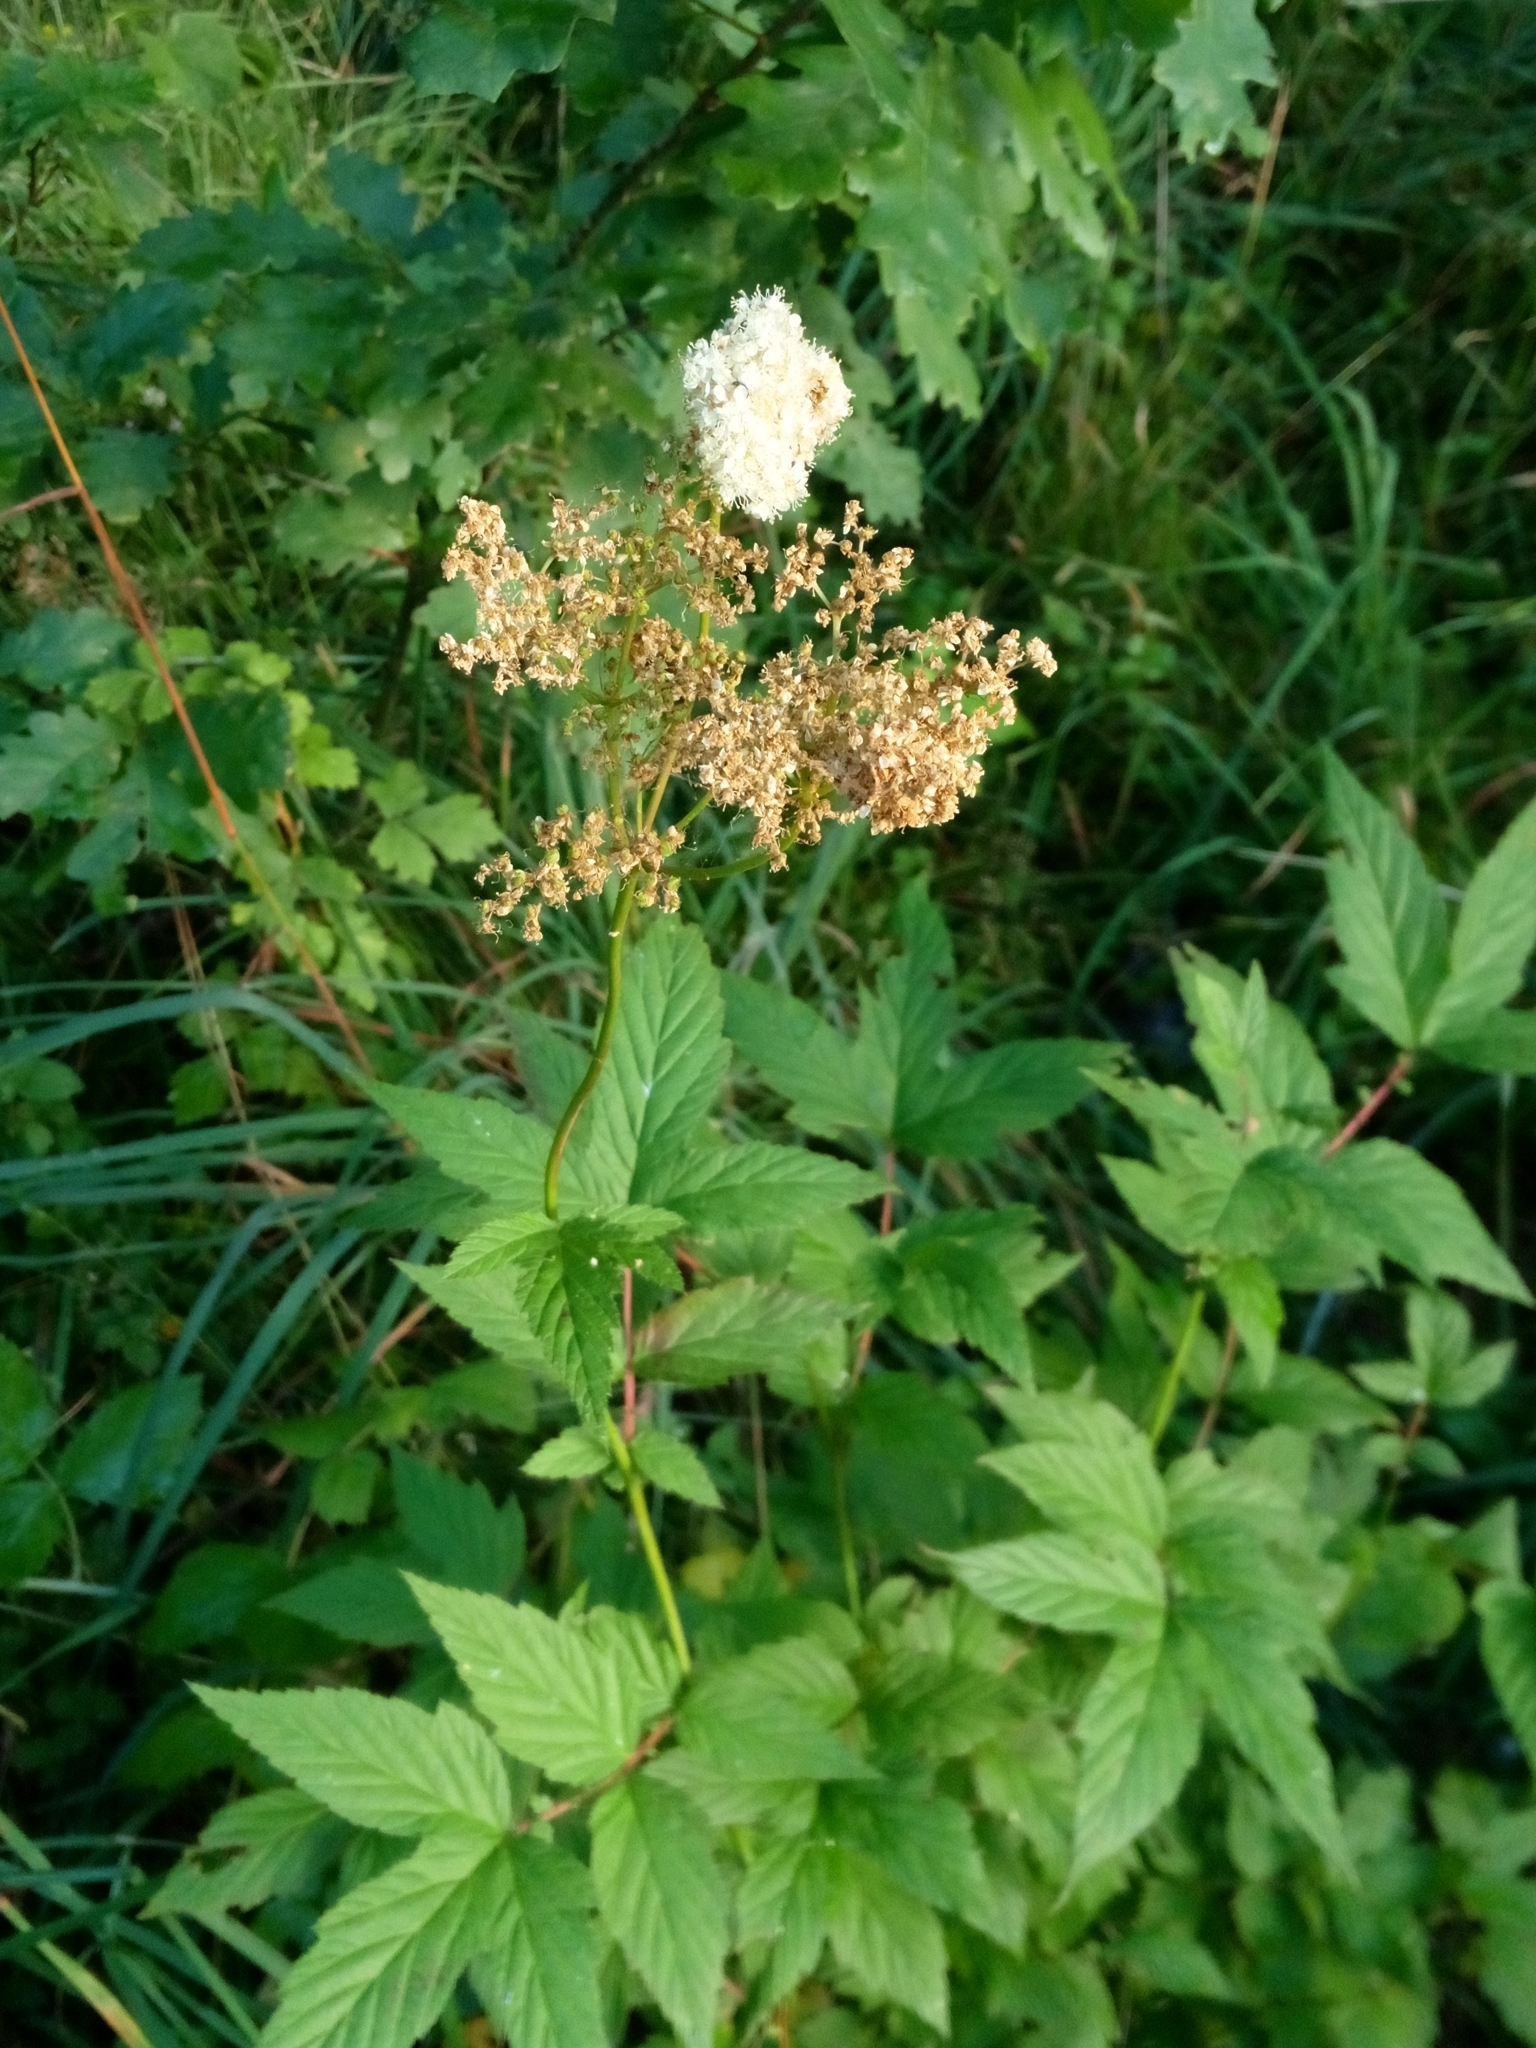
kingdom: Plantae
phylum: Tracheophyta
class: Magnoliopsida
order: Rosales
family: Rosaceae
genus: Filipendula
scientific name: Filipendula ulmaria
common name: Meadowsweet
